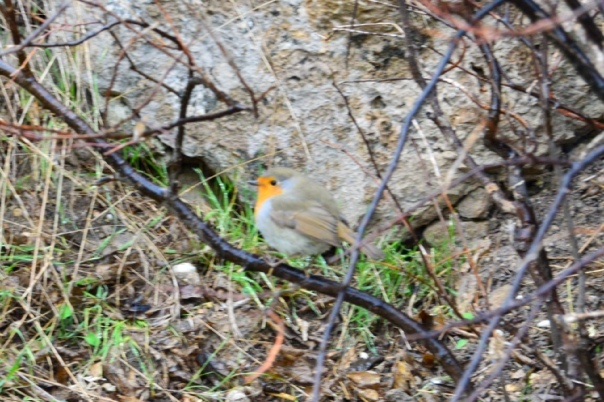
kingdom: Animalia
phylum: Chordata
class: Aves
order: Passeriformes
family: Muscicapidae
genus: Erithacus
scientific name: Erithacus rubecula
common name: European robin
